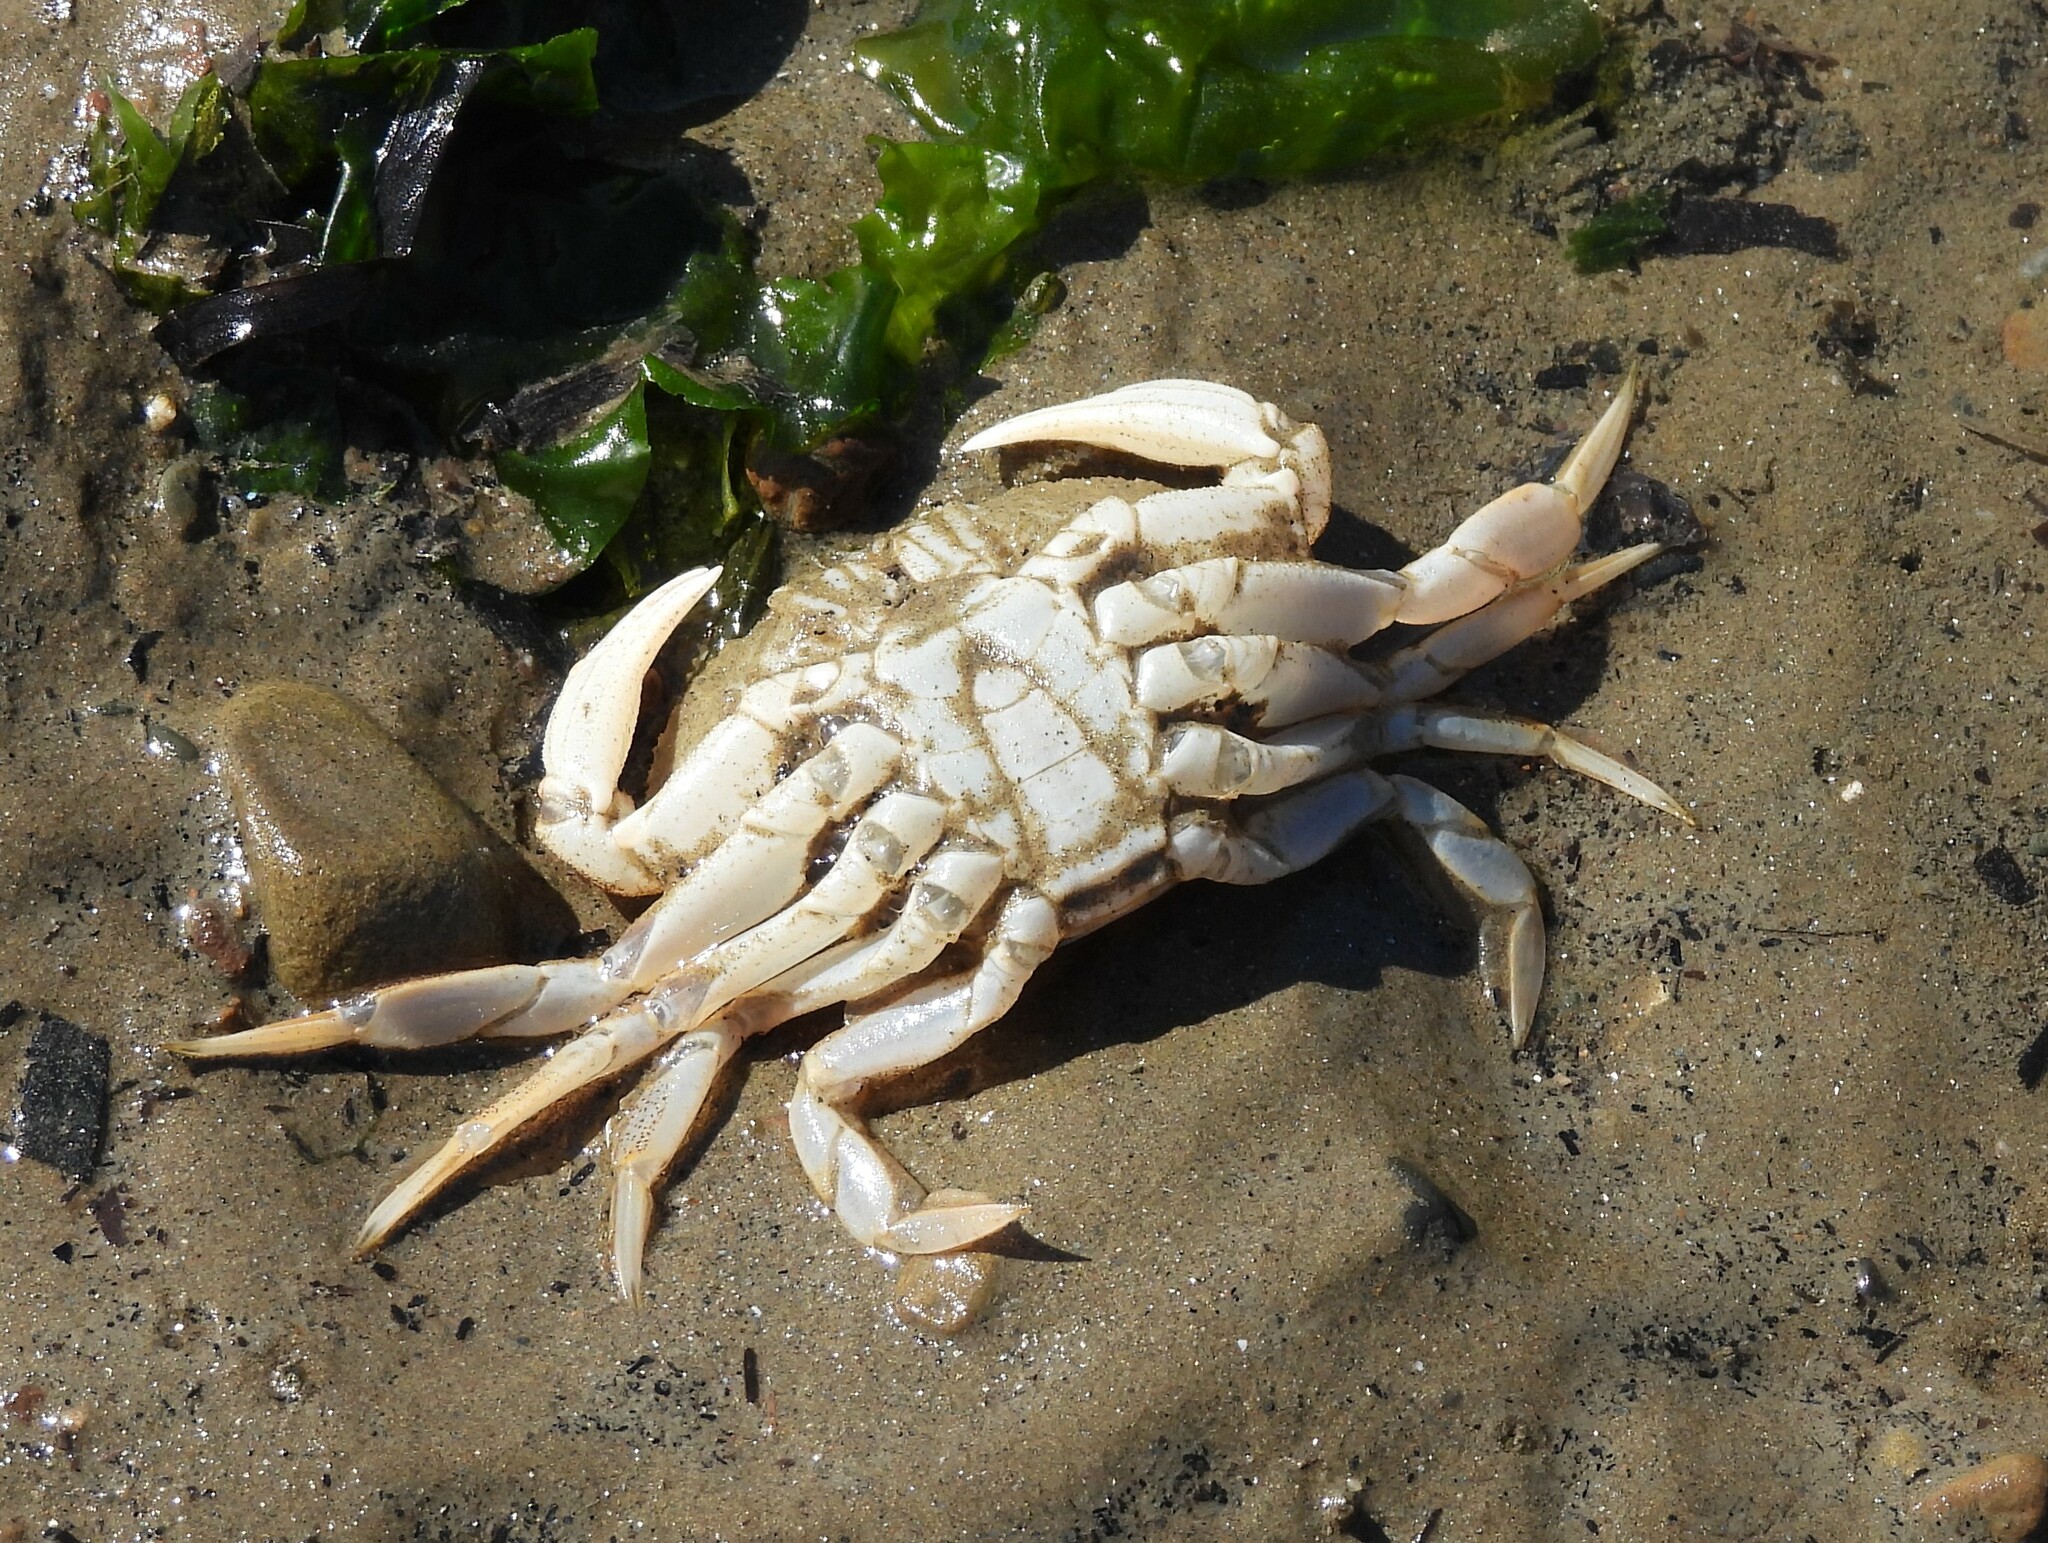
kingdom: Animalia
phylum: Arthropoda
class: Malacostraca
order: Decapoda
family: Cancridae
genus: Metacarcinus
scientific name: Metacarcinus magister
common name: Californian crab
